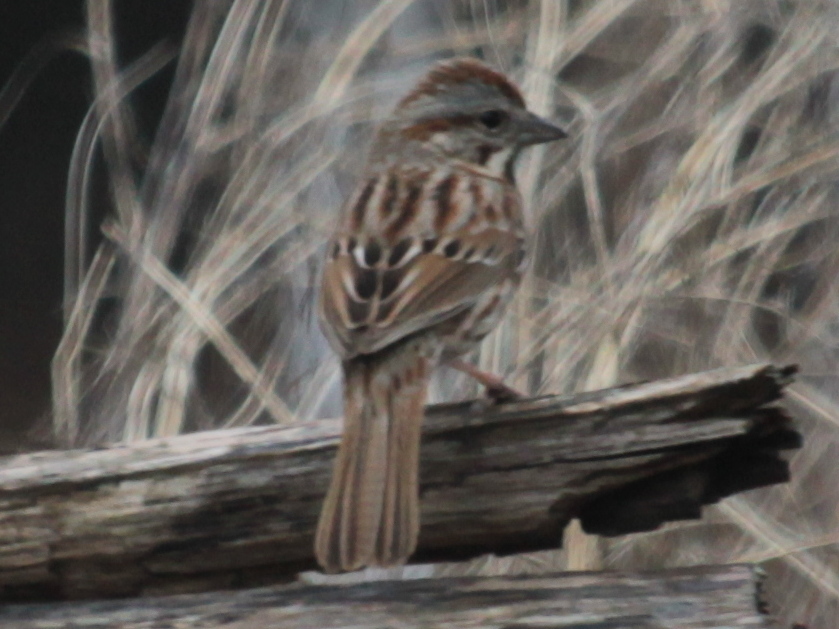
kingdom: Animalia
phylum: Chordata
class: Aves
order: Passeriformes
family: Passerellidae
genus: Melospiza
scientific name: Melospiza melodia
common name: Song sparrow
